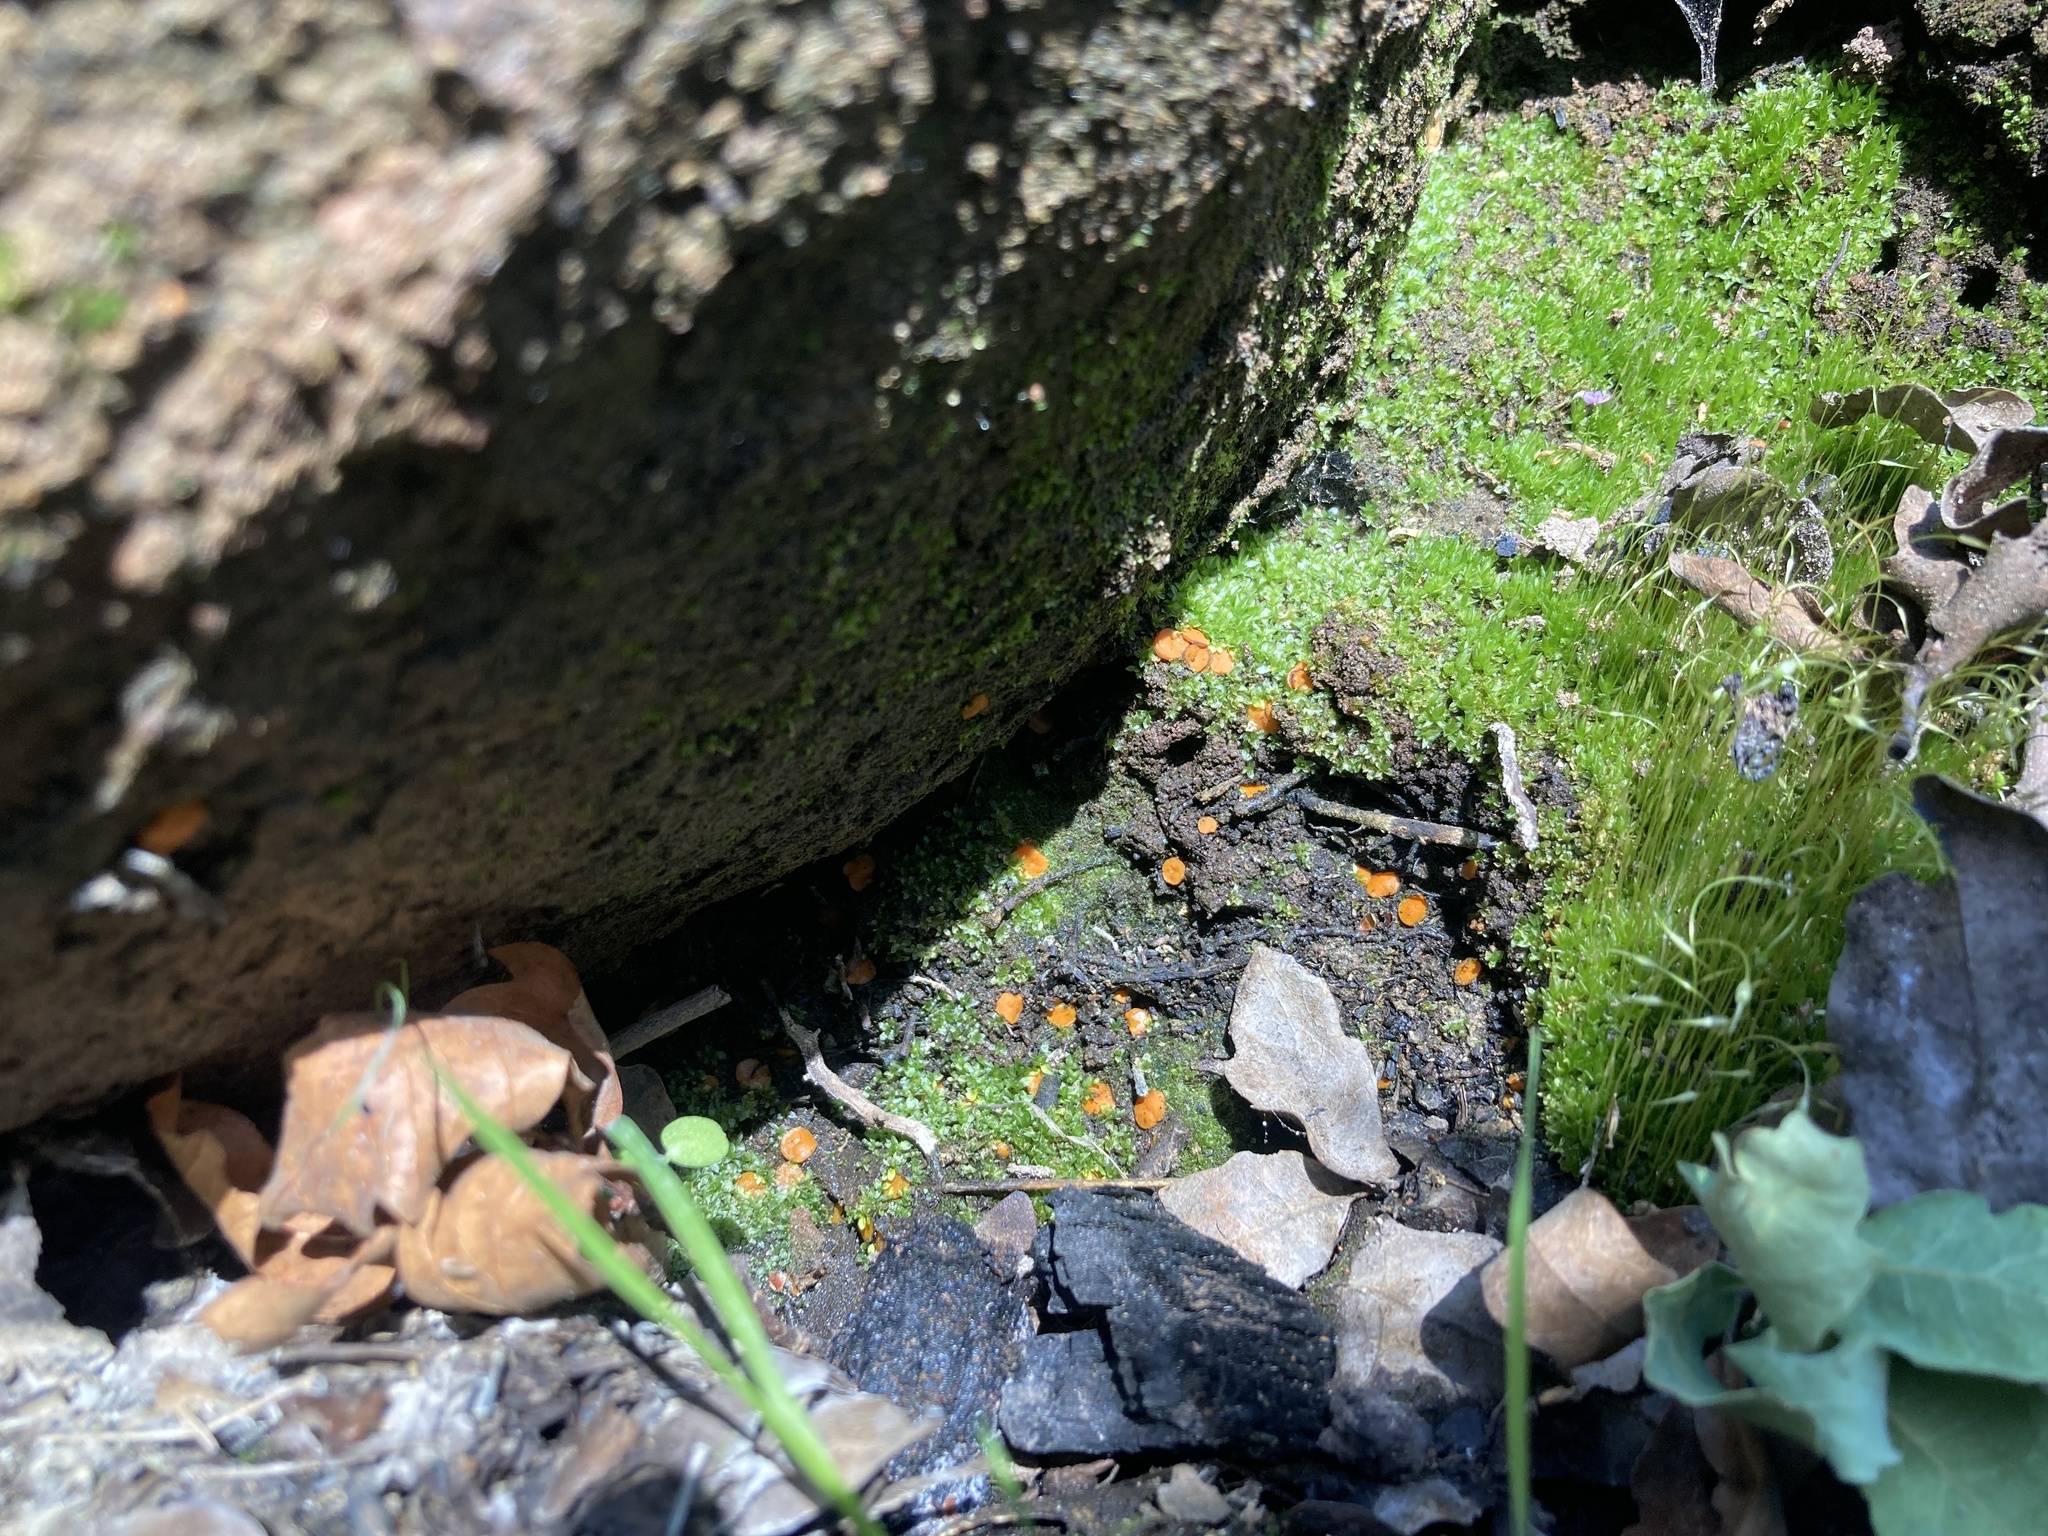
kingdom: Fungi
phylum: Ascomycota
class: Pezizomycetes
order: Pezizales
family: Pyronemataceae
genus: Anthracobia
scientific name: Anthracobia melaloma
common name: Charcoal eyelash
